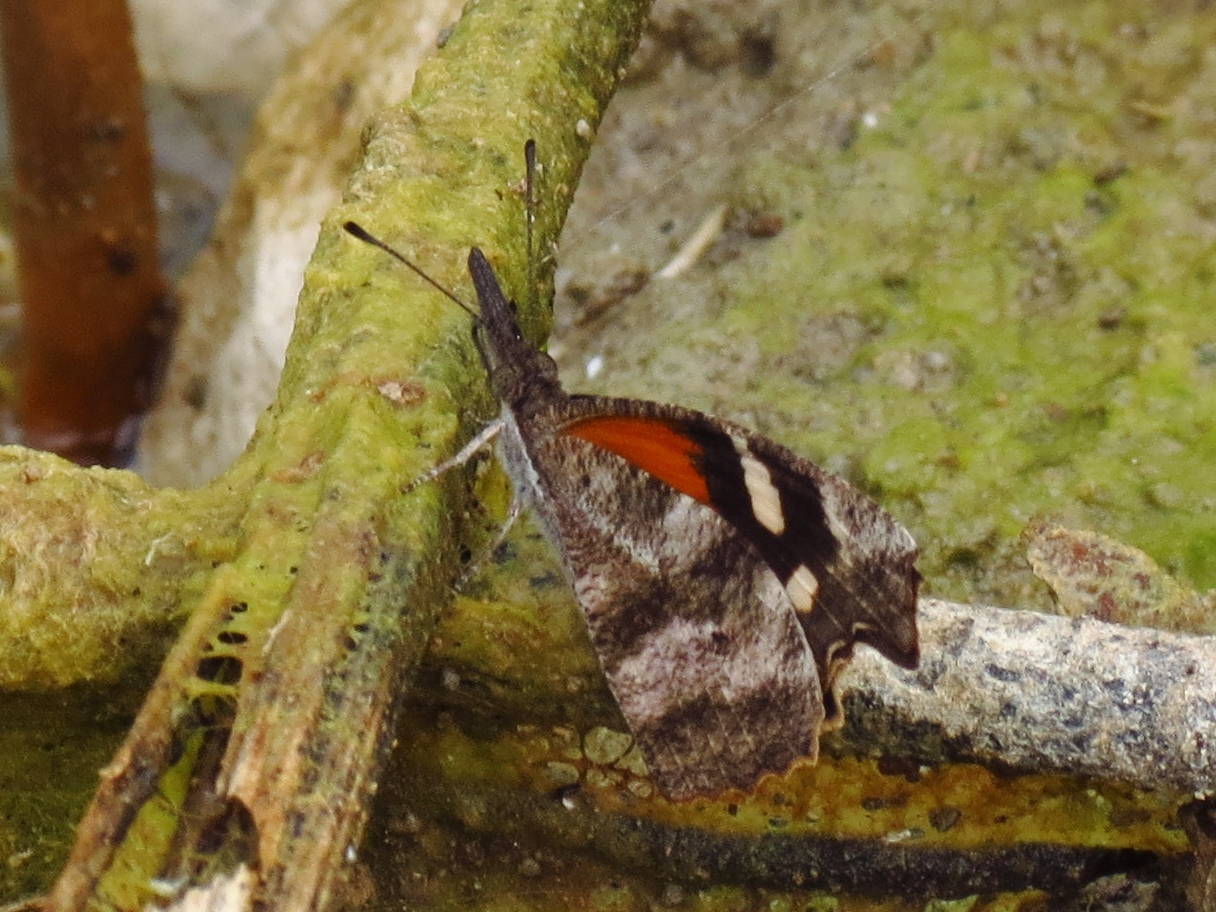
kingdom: Animalia
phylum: Arthropoda
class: Insecta
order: Lepidoptera
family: Nymphalidae
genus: Libytheana
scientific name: Libytheana carinenta
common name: American snout
